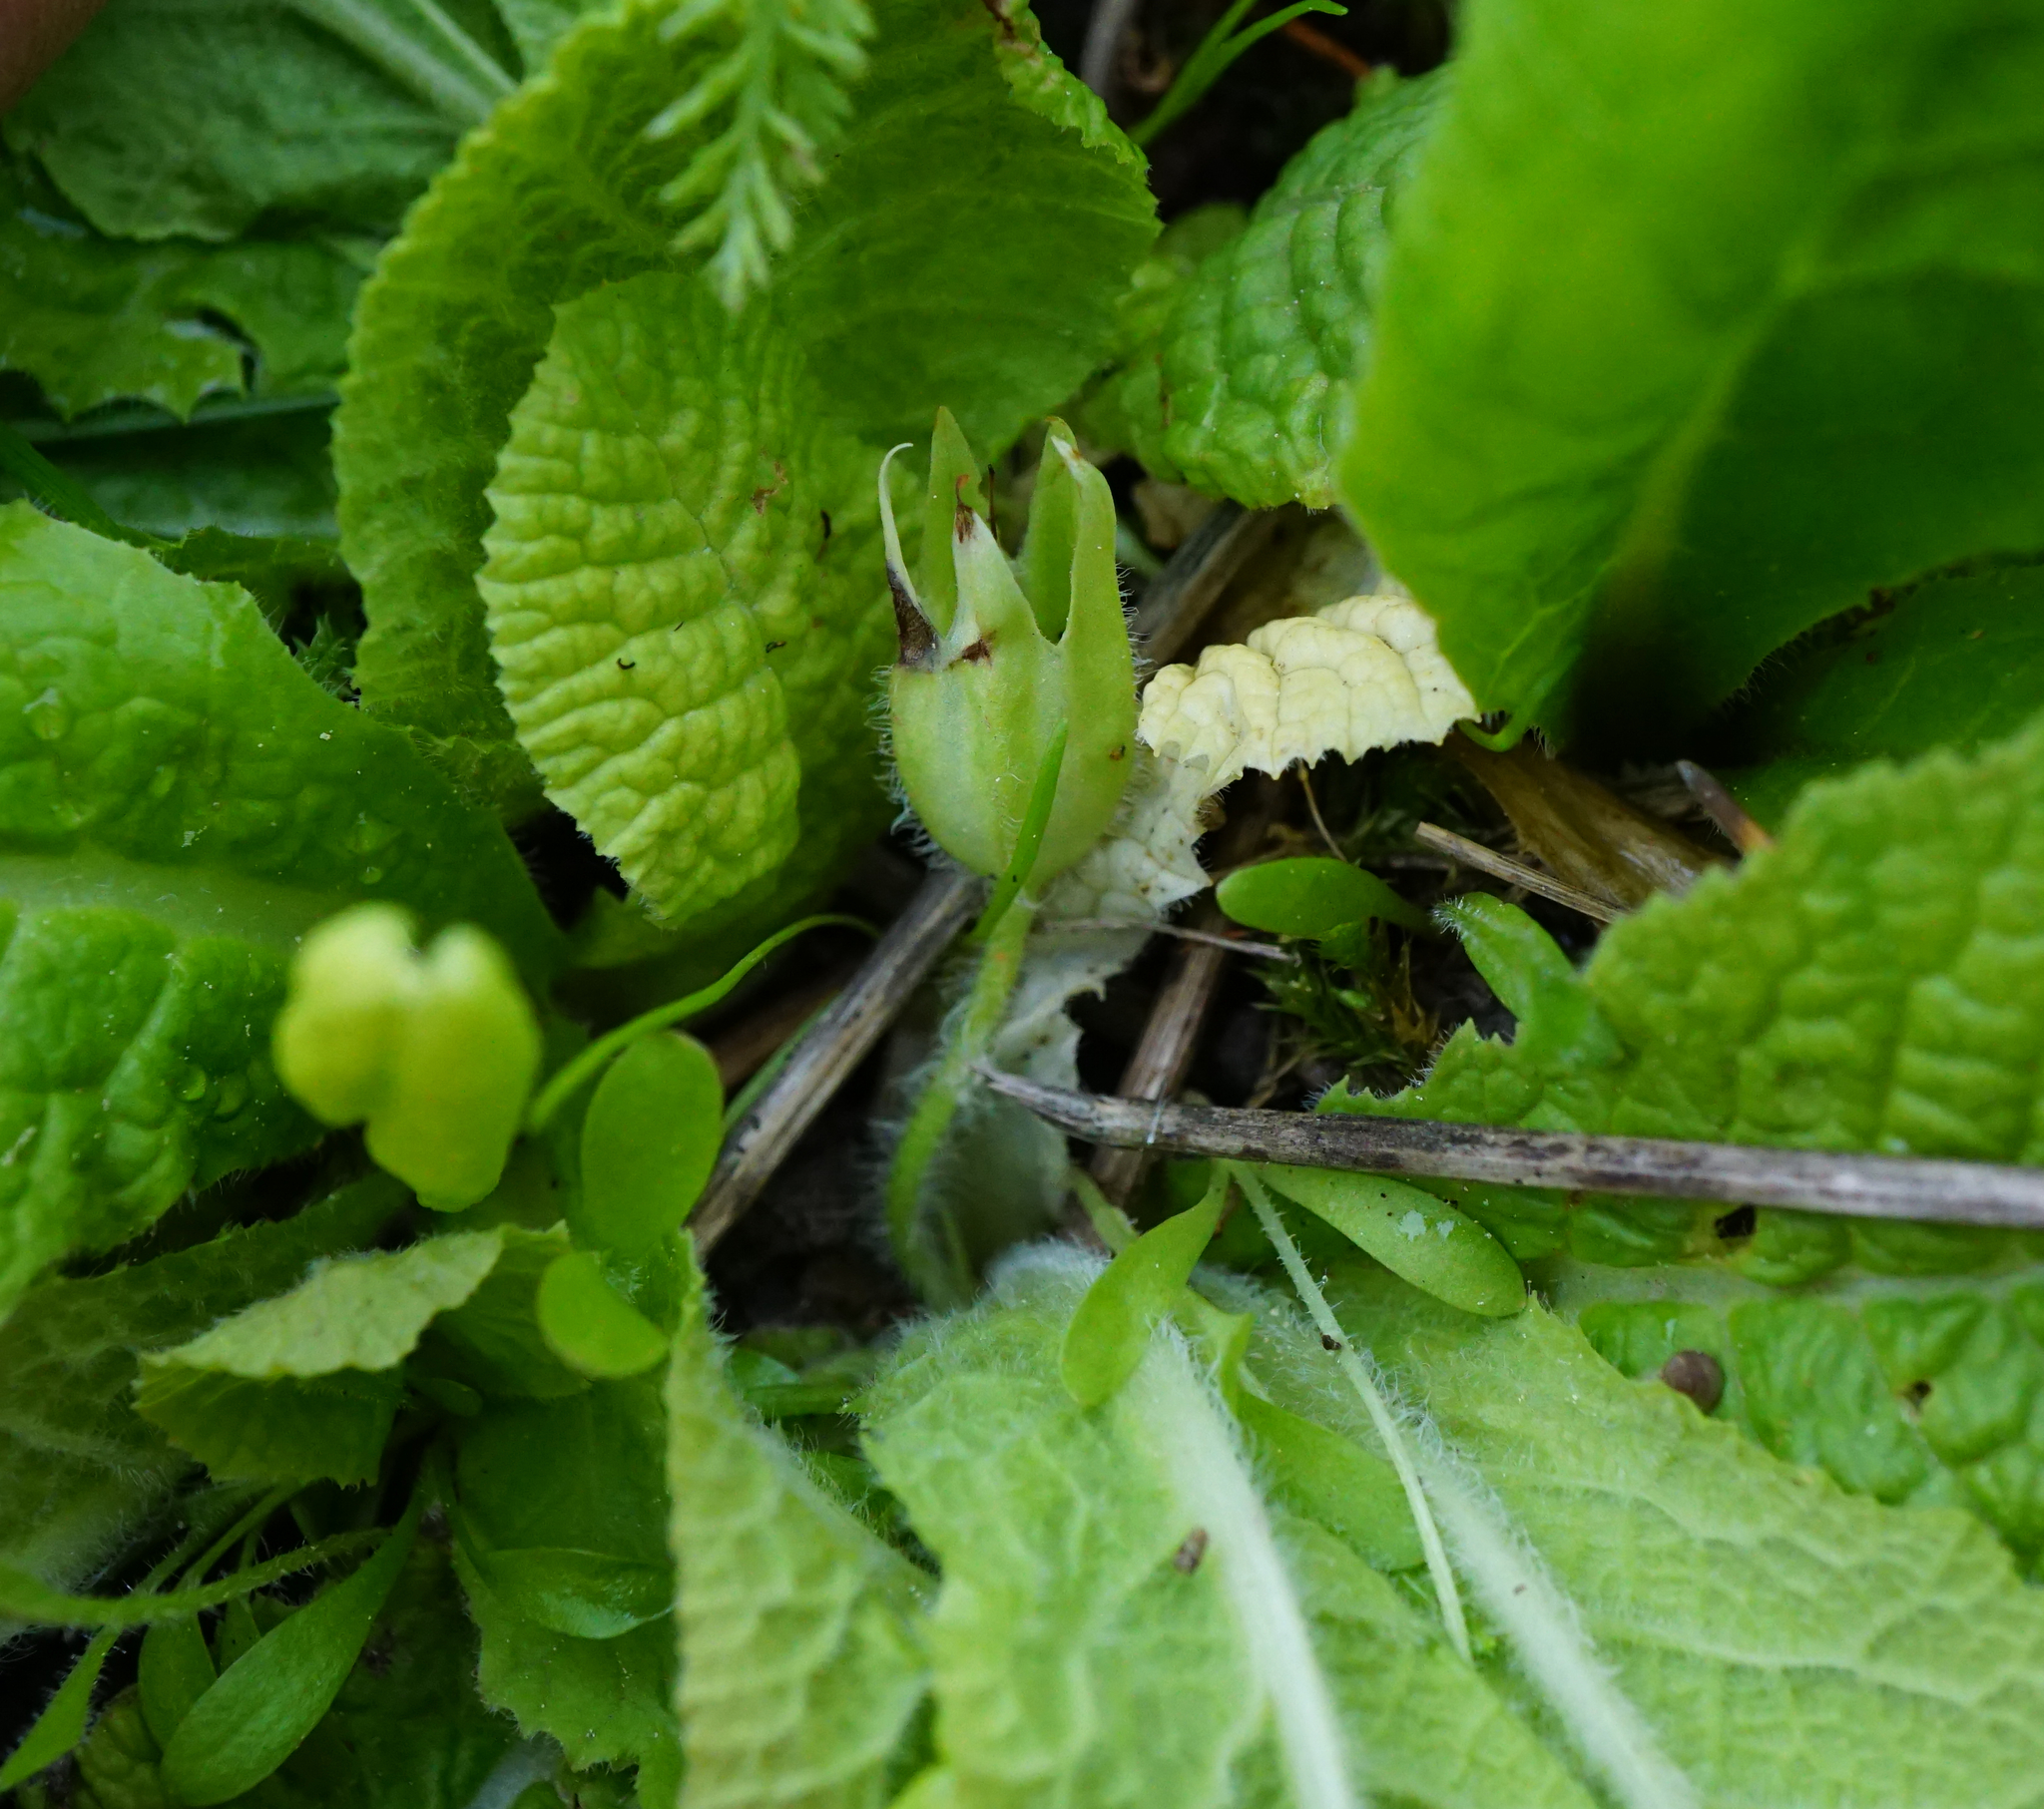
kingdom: Plantae
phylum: Tracheophyta
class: Magnoliopsida
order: Ericales
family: Primulaceae
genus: Primula
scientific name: Primula vulgaris
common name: Primrose
